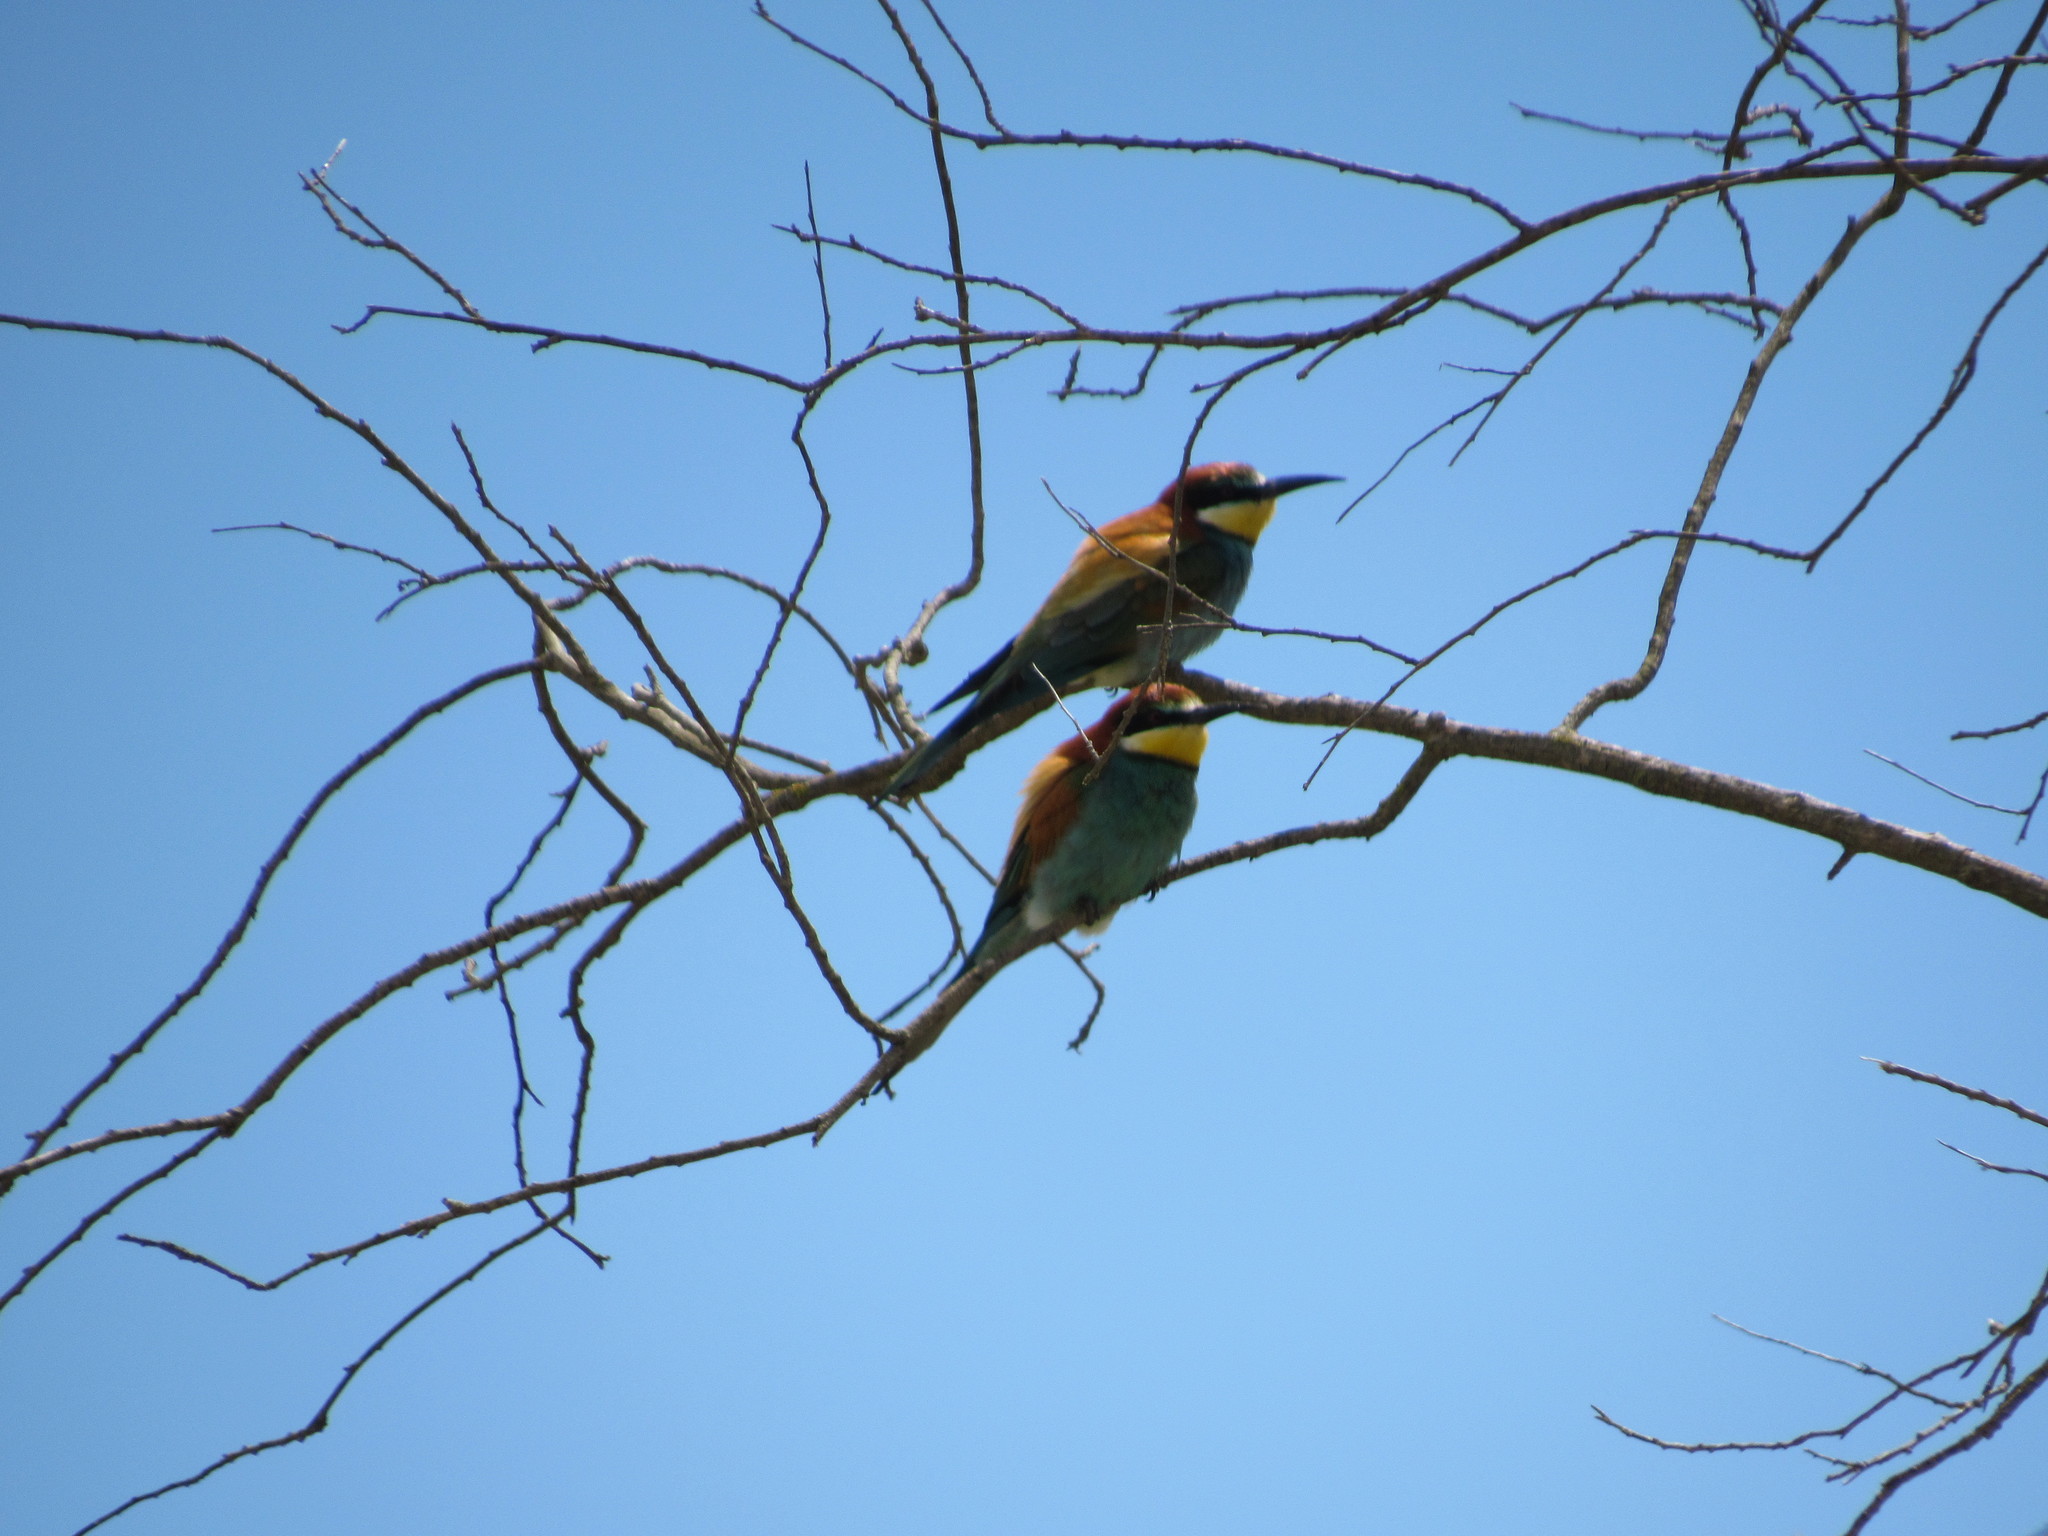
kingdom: Animalia
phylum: Chordata
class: Aves
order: Coraciiformes
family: Meropidae
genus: Merops
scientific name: Merops apiaster
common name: European bee-eater
